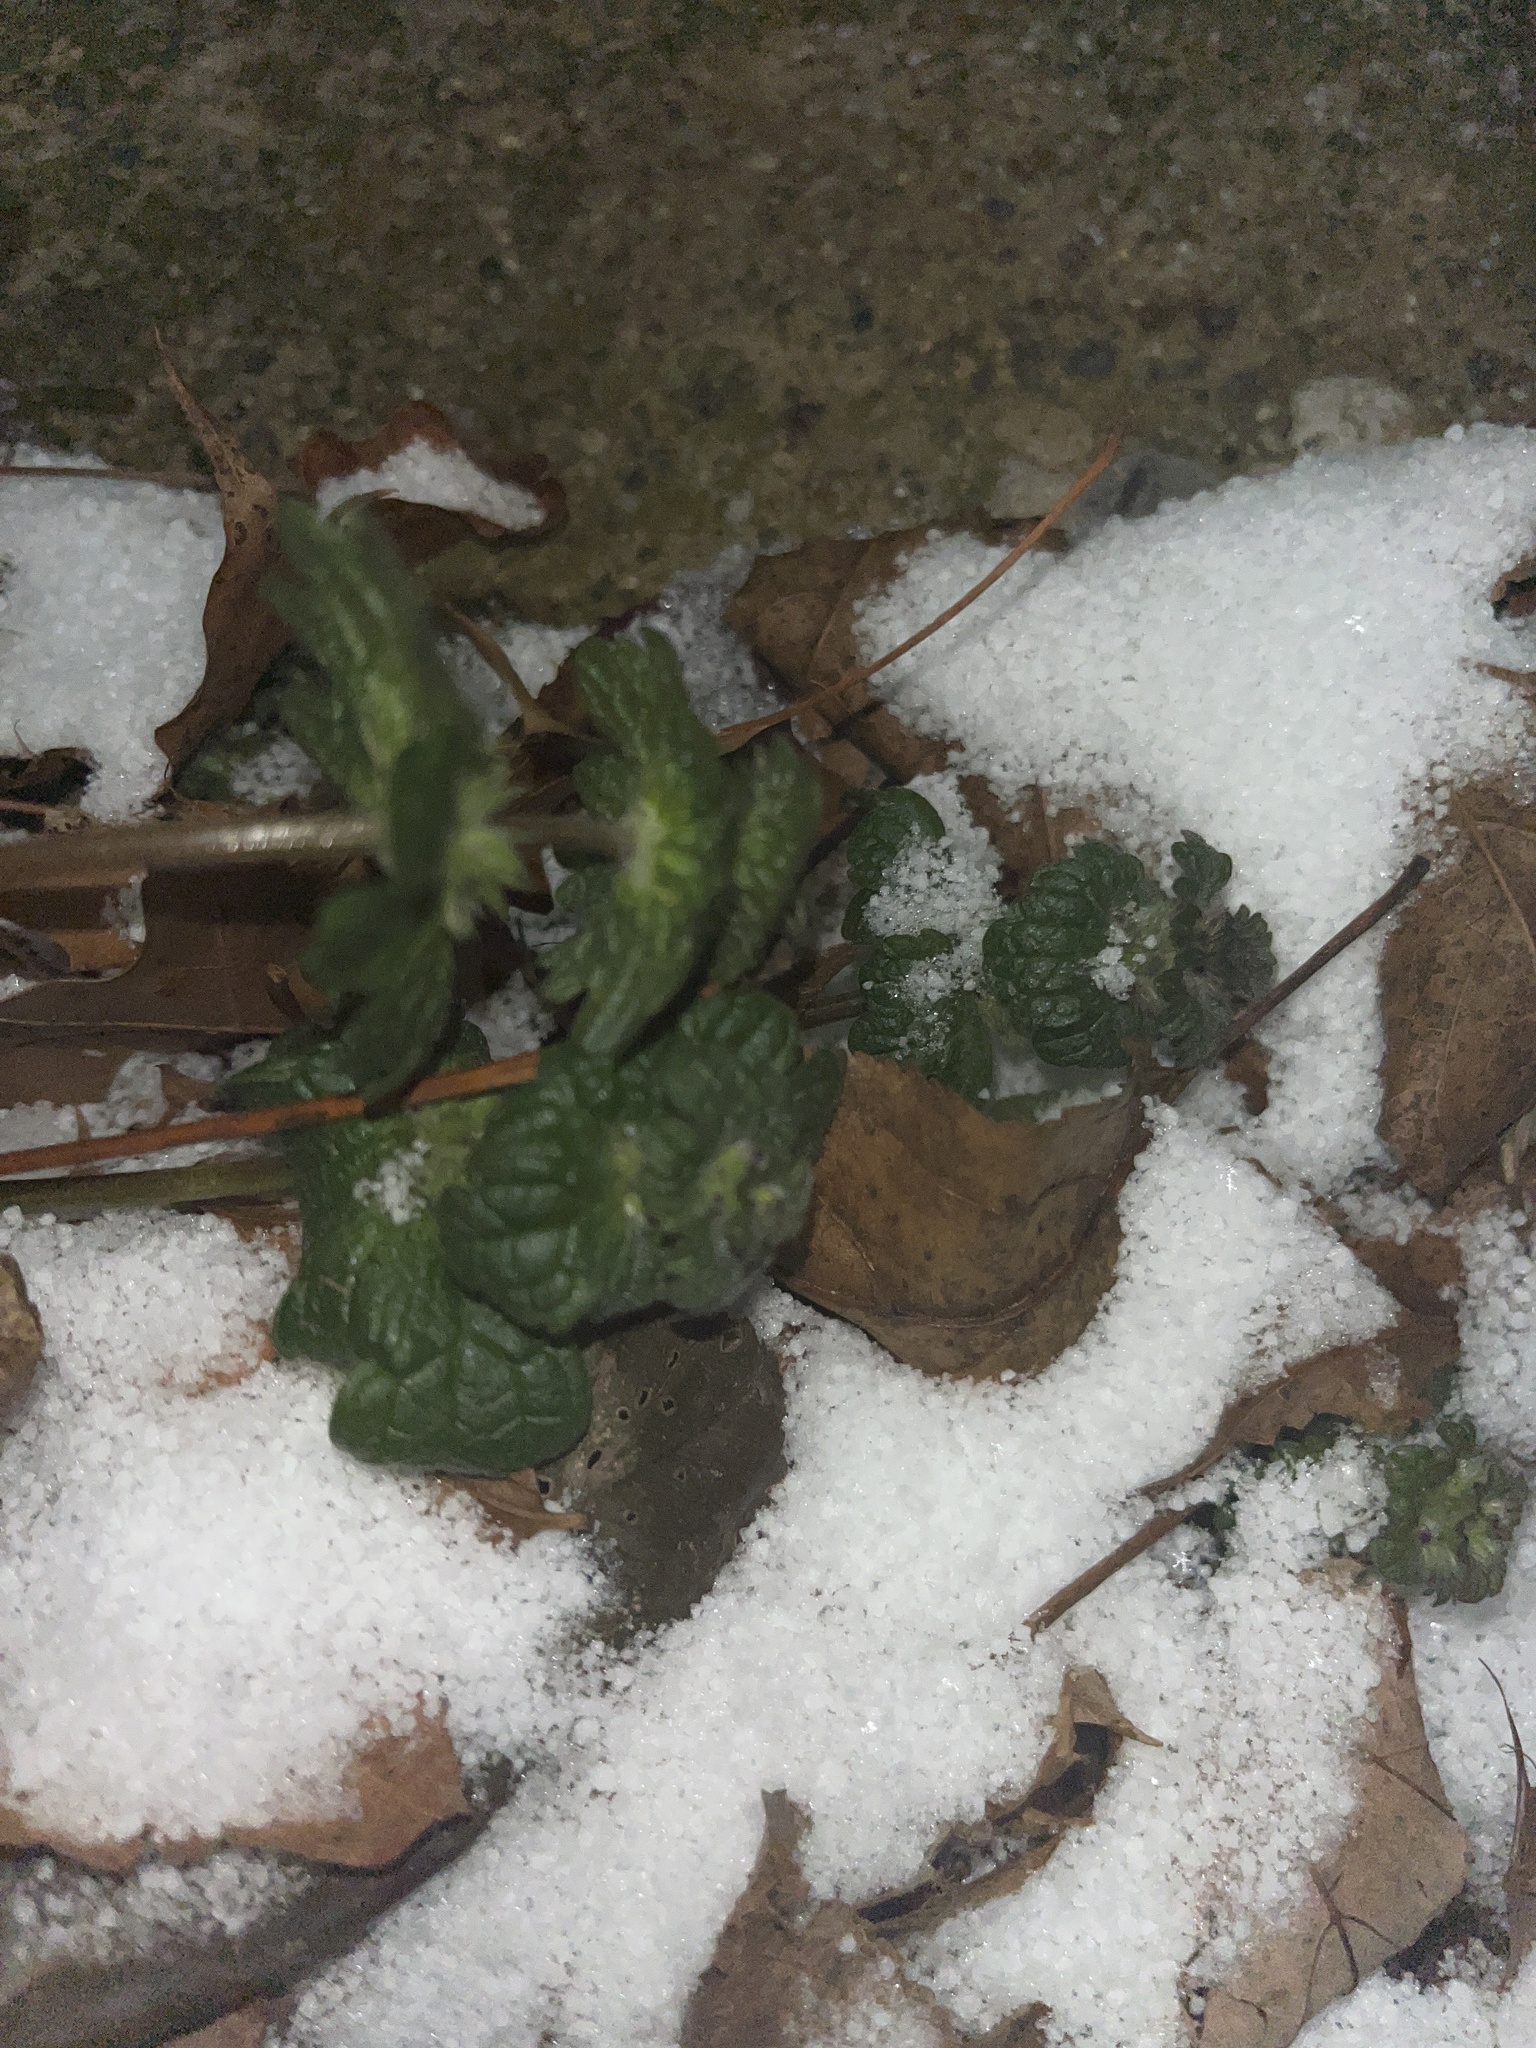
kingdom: Plantae
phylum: Tracheophyta
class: Magnoliopsida
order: Lamiales
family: Lamiaceae
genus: Lamium
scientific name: Lamium amplexicaule
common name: Henbit dead-nettle
